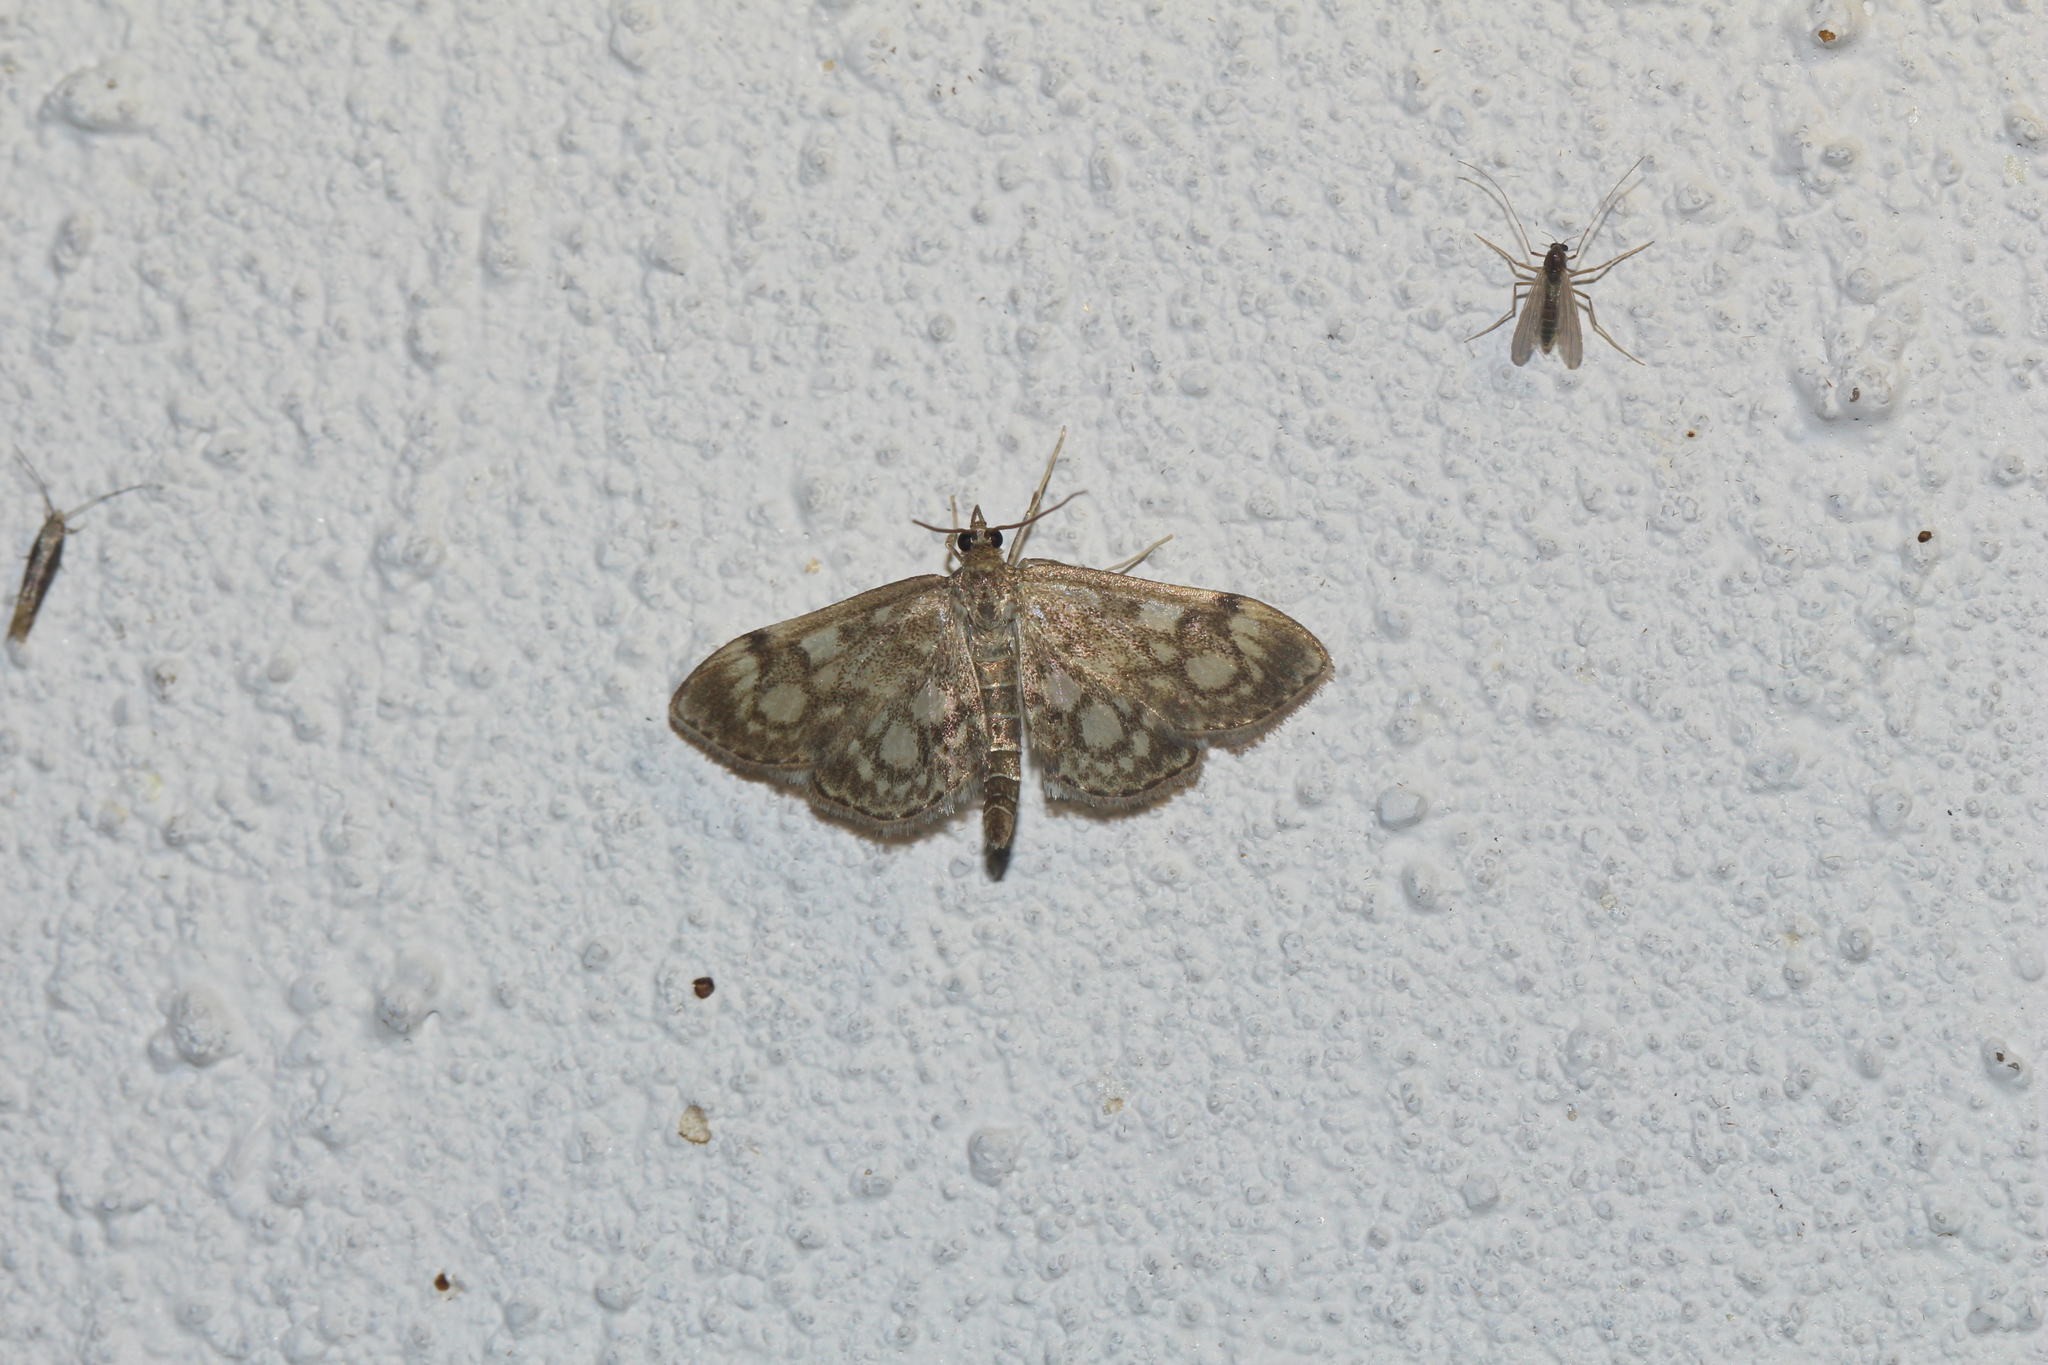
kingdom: Animalia
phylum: Arthropoda
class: Insecta
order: Lepidoptera
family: Crambidae
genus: Anania
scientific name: Anania coronata
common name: Elder pearl
